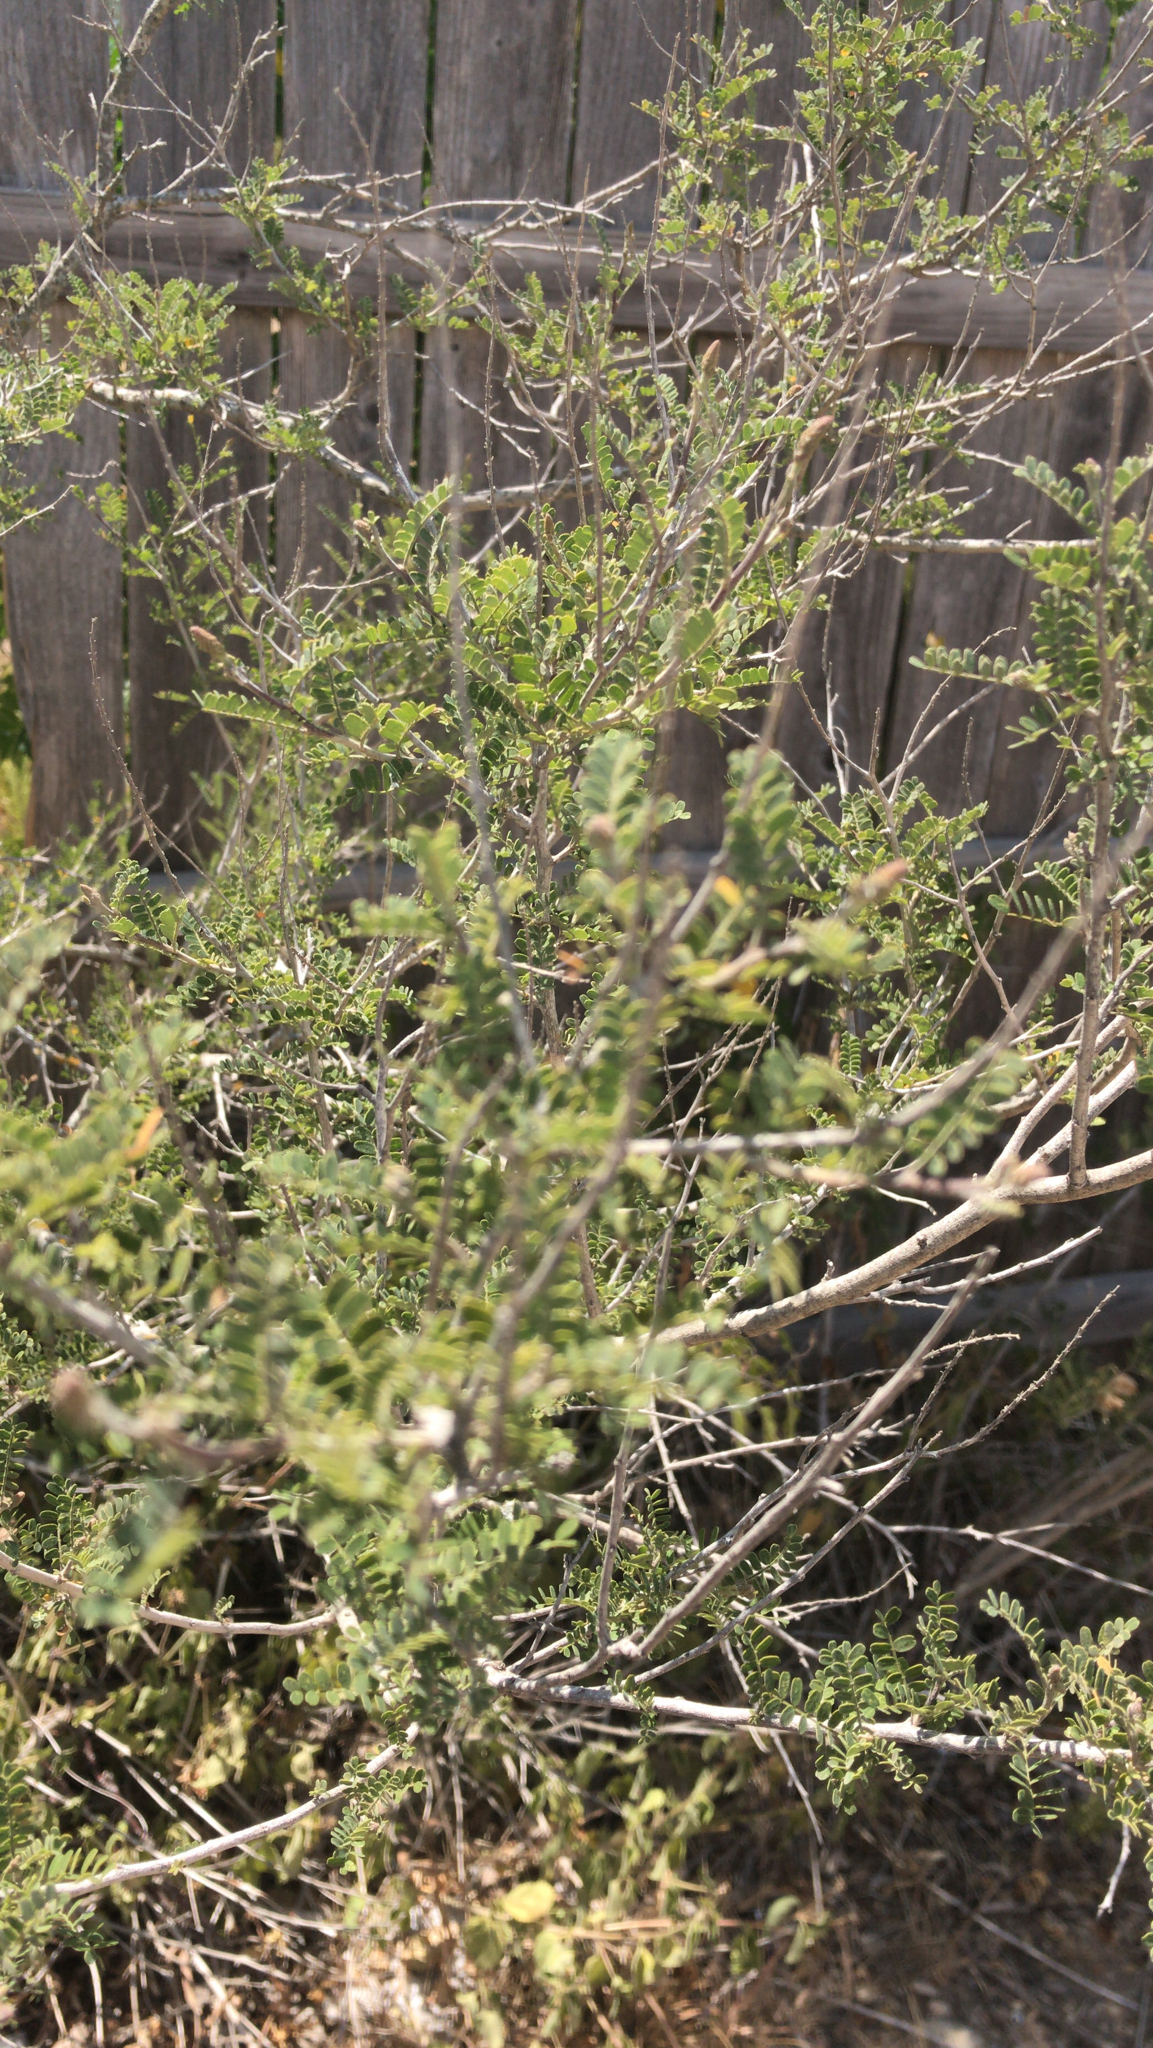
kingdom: Plantae
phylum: Tracheophyta
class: Magnoliopsida
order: Fabales
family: Fabaceae
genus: Eysenhardtia
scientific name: Eysenhardtia texana
